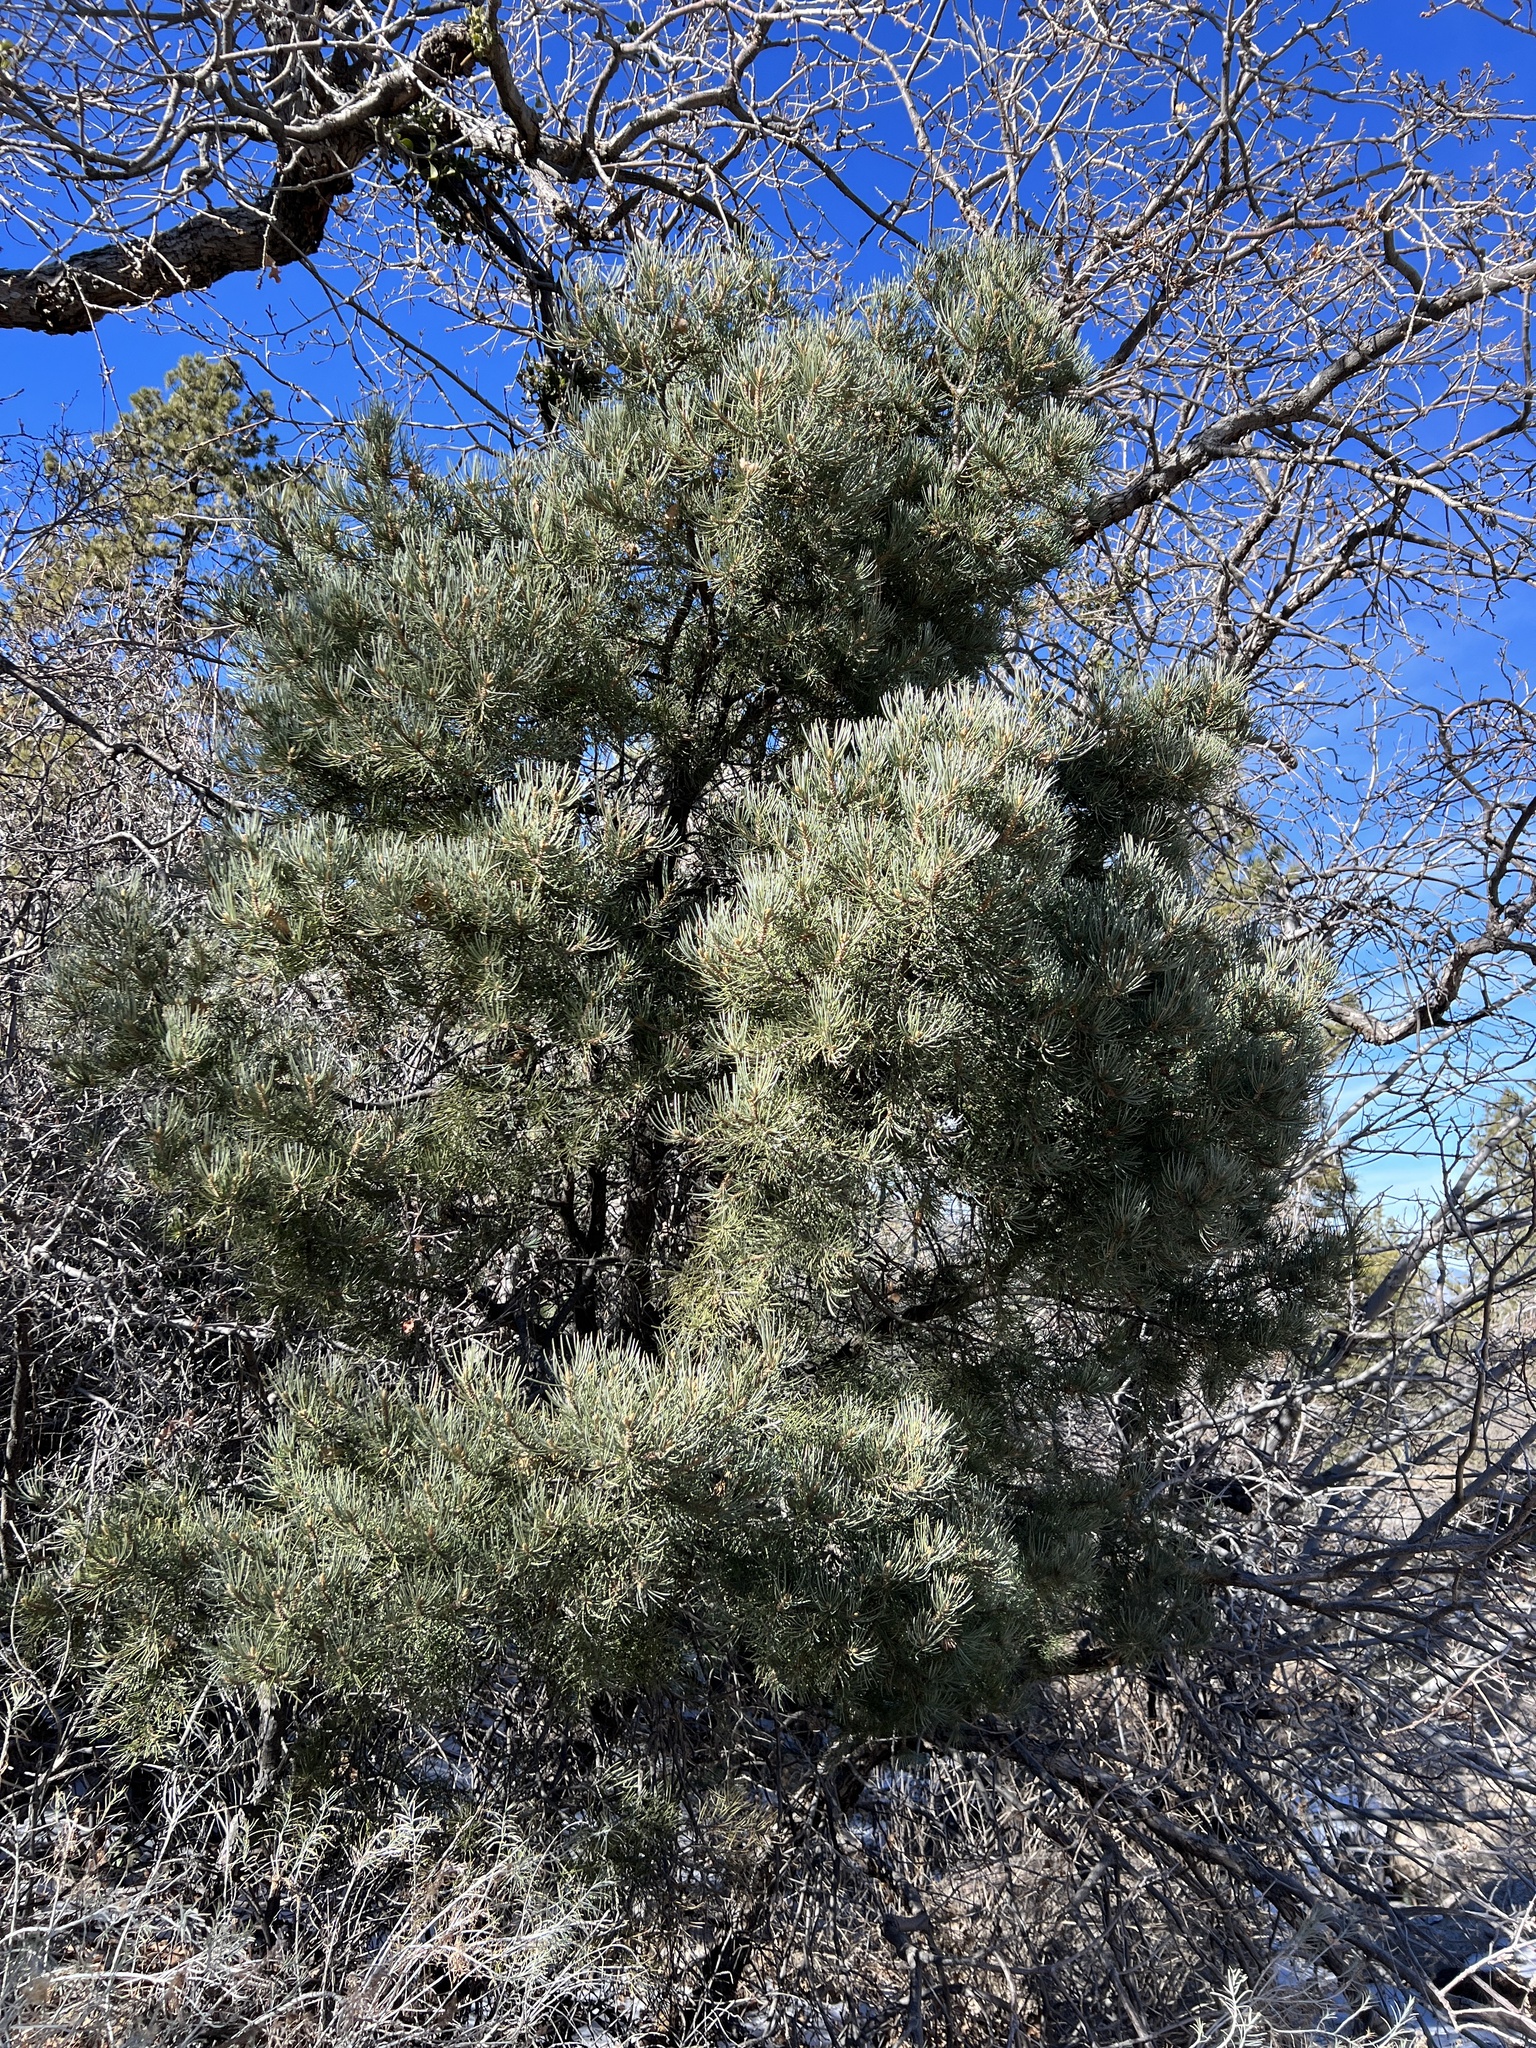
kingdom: Plantae
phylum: Tracheophyta
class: Pinopsida
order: Pinales
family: Pinaceae
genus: Pinus
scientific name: Pinus monophylla
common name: One-leaved nut pine
